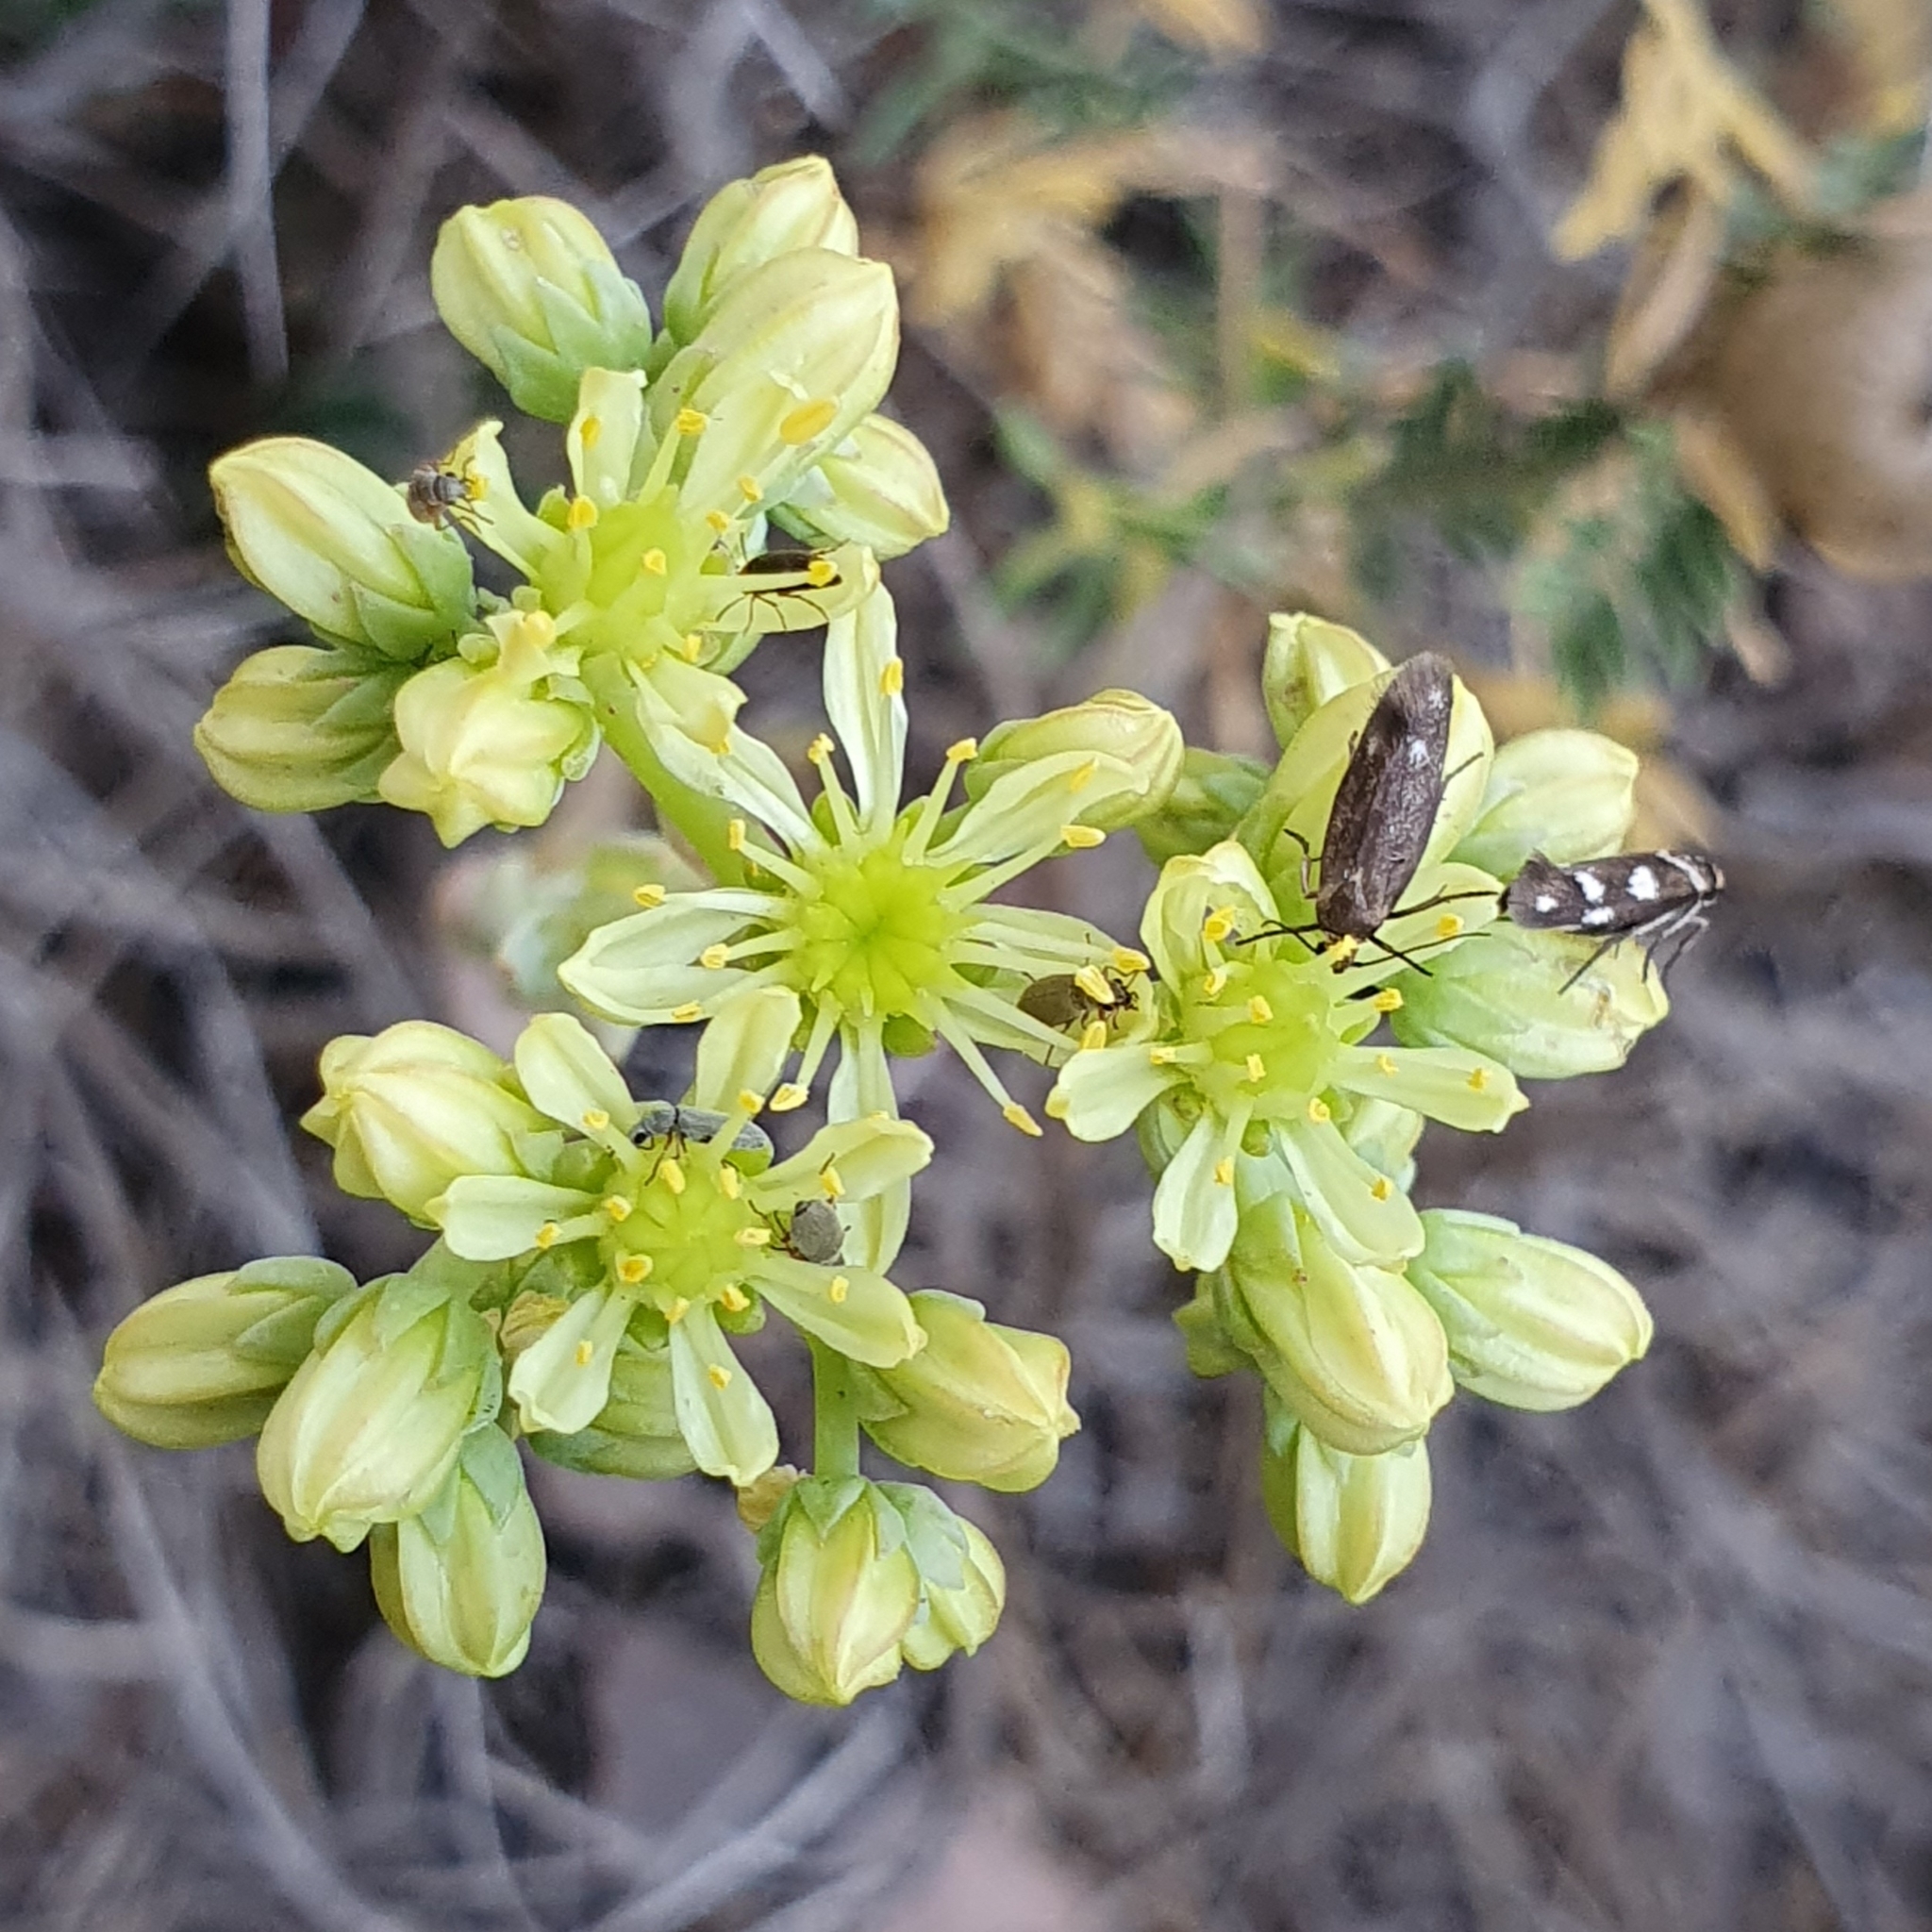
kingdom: Plantae
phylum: Tracheophyta
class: Magnoliopsida
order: Saxifragales
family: Crassulaceae
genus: Petrosedum
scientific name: Petrosedum sediforme
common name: Pale stonecrop
